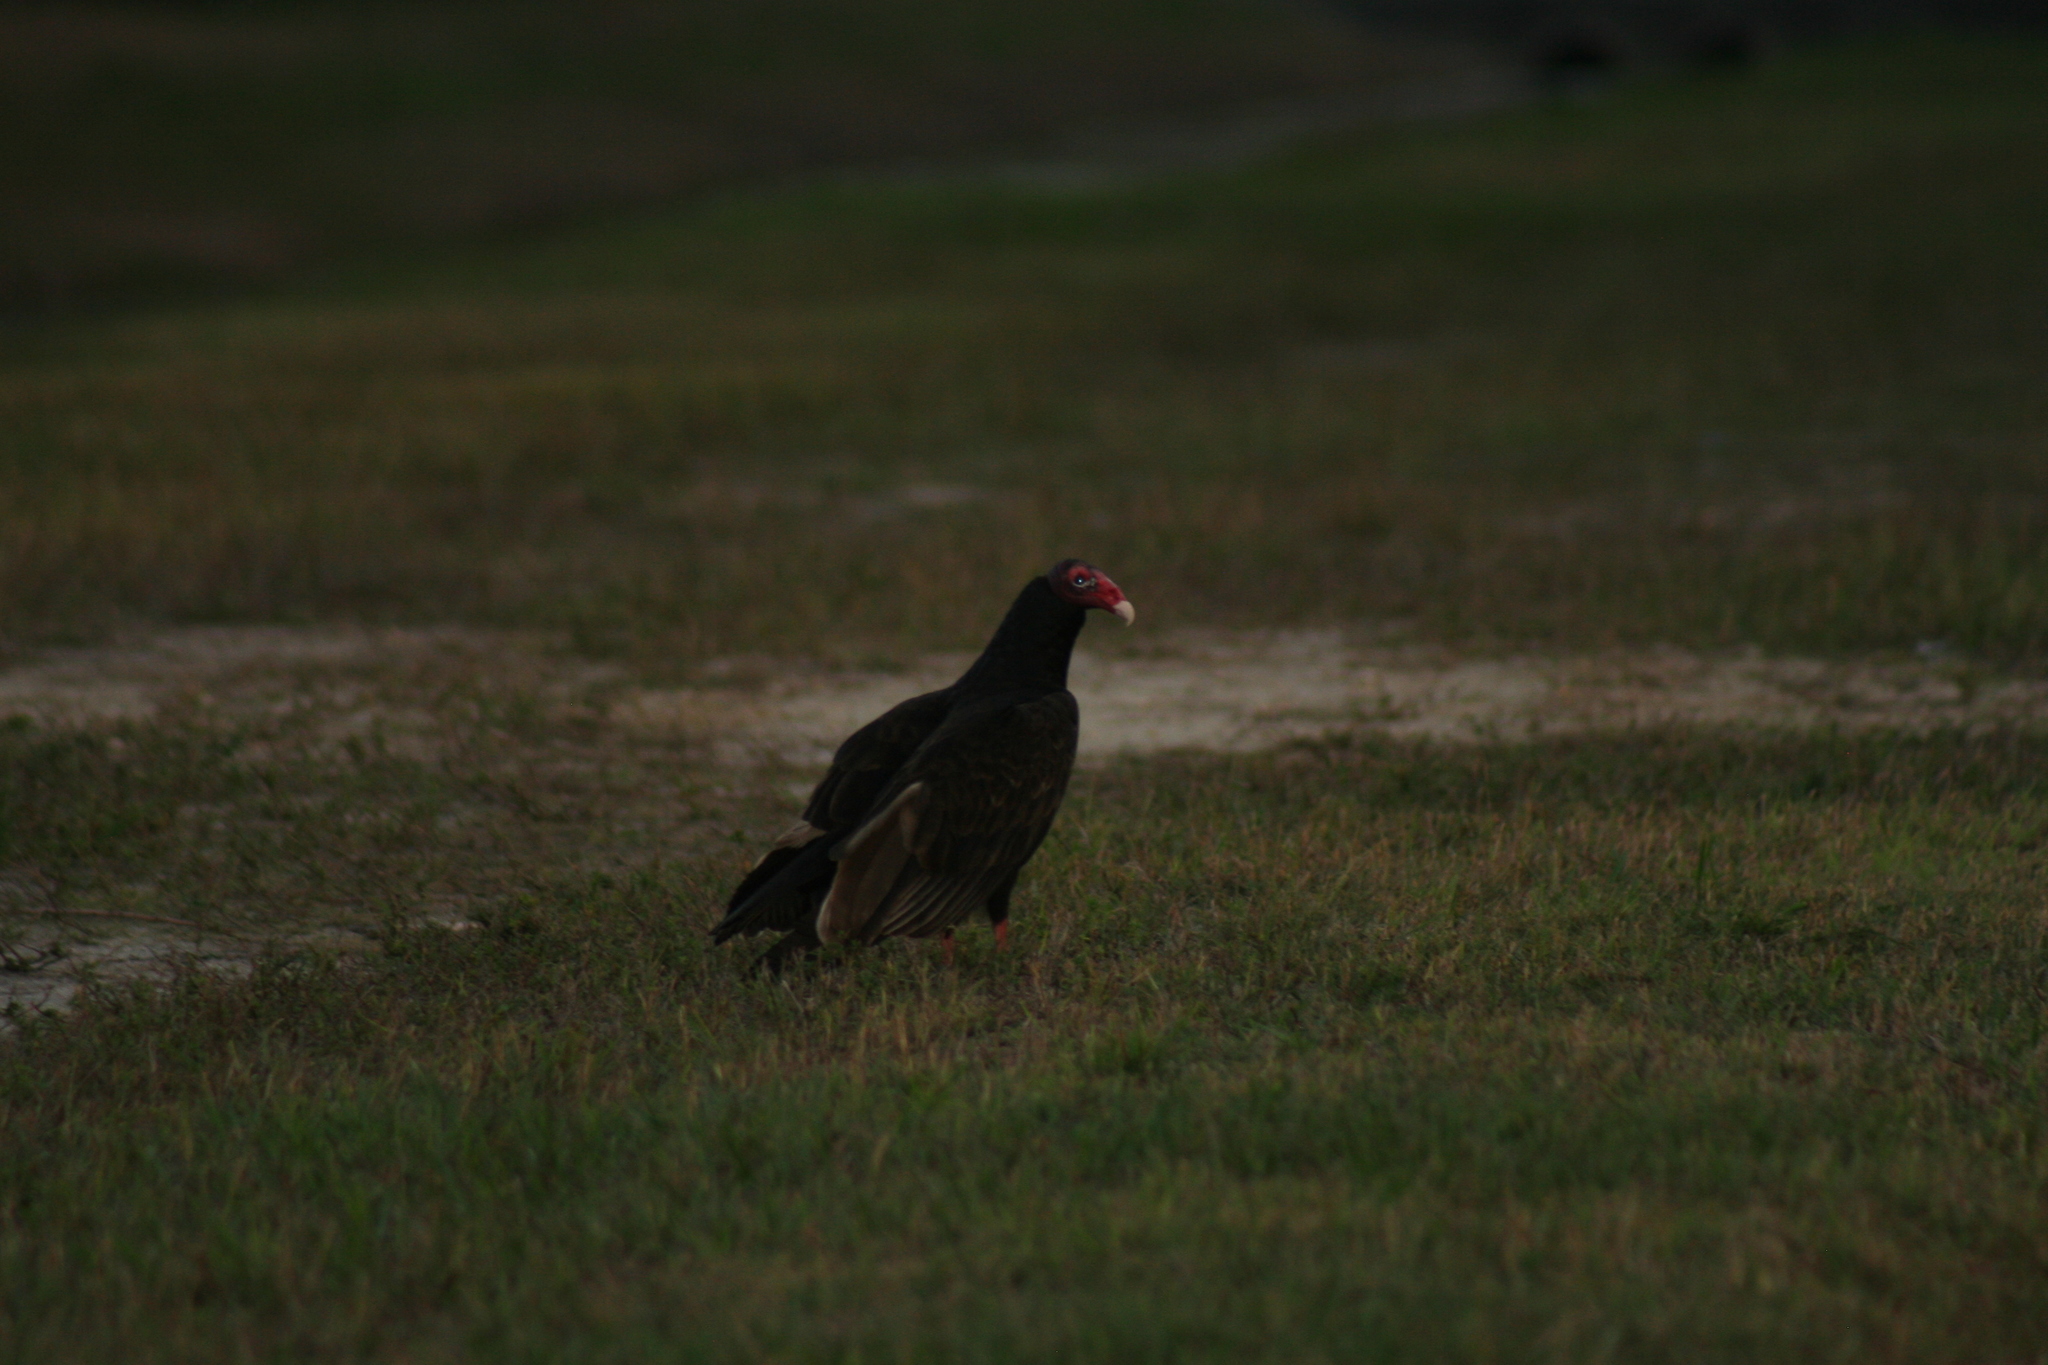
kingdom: Animalia
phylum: Chordata
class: Aves
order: Accipitriformes
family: Cathartidae
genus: Cathartes
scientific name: Cathartes aura
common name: Turkey vulture
